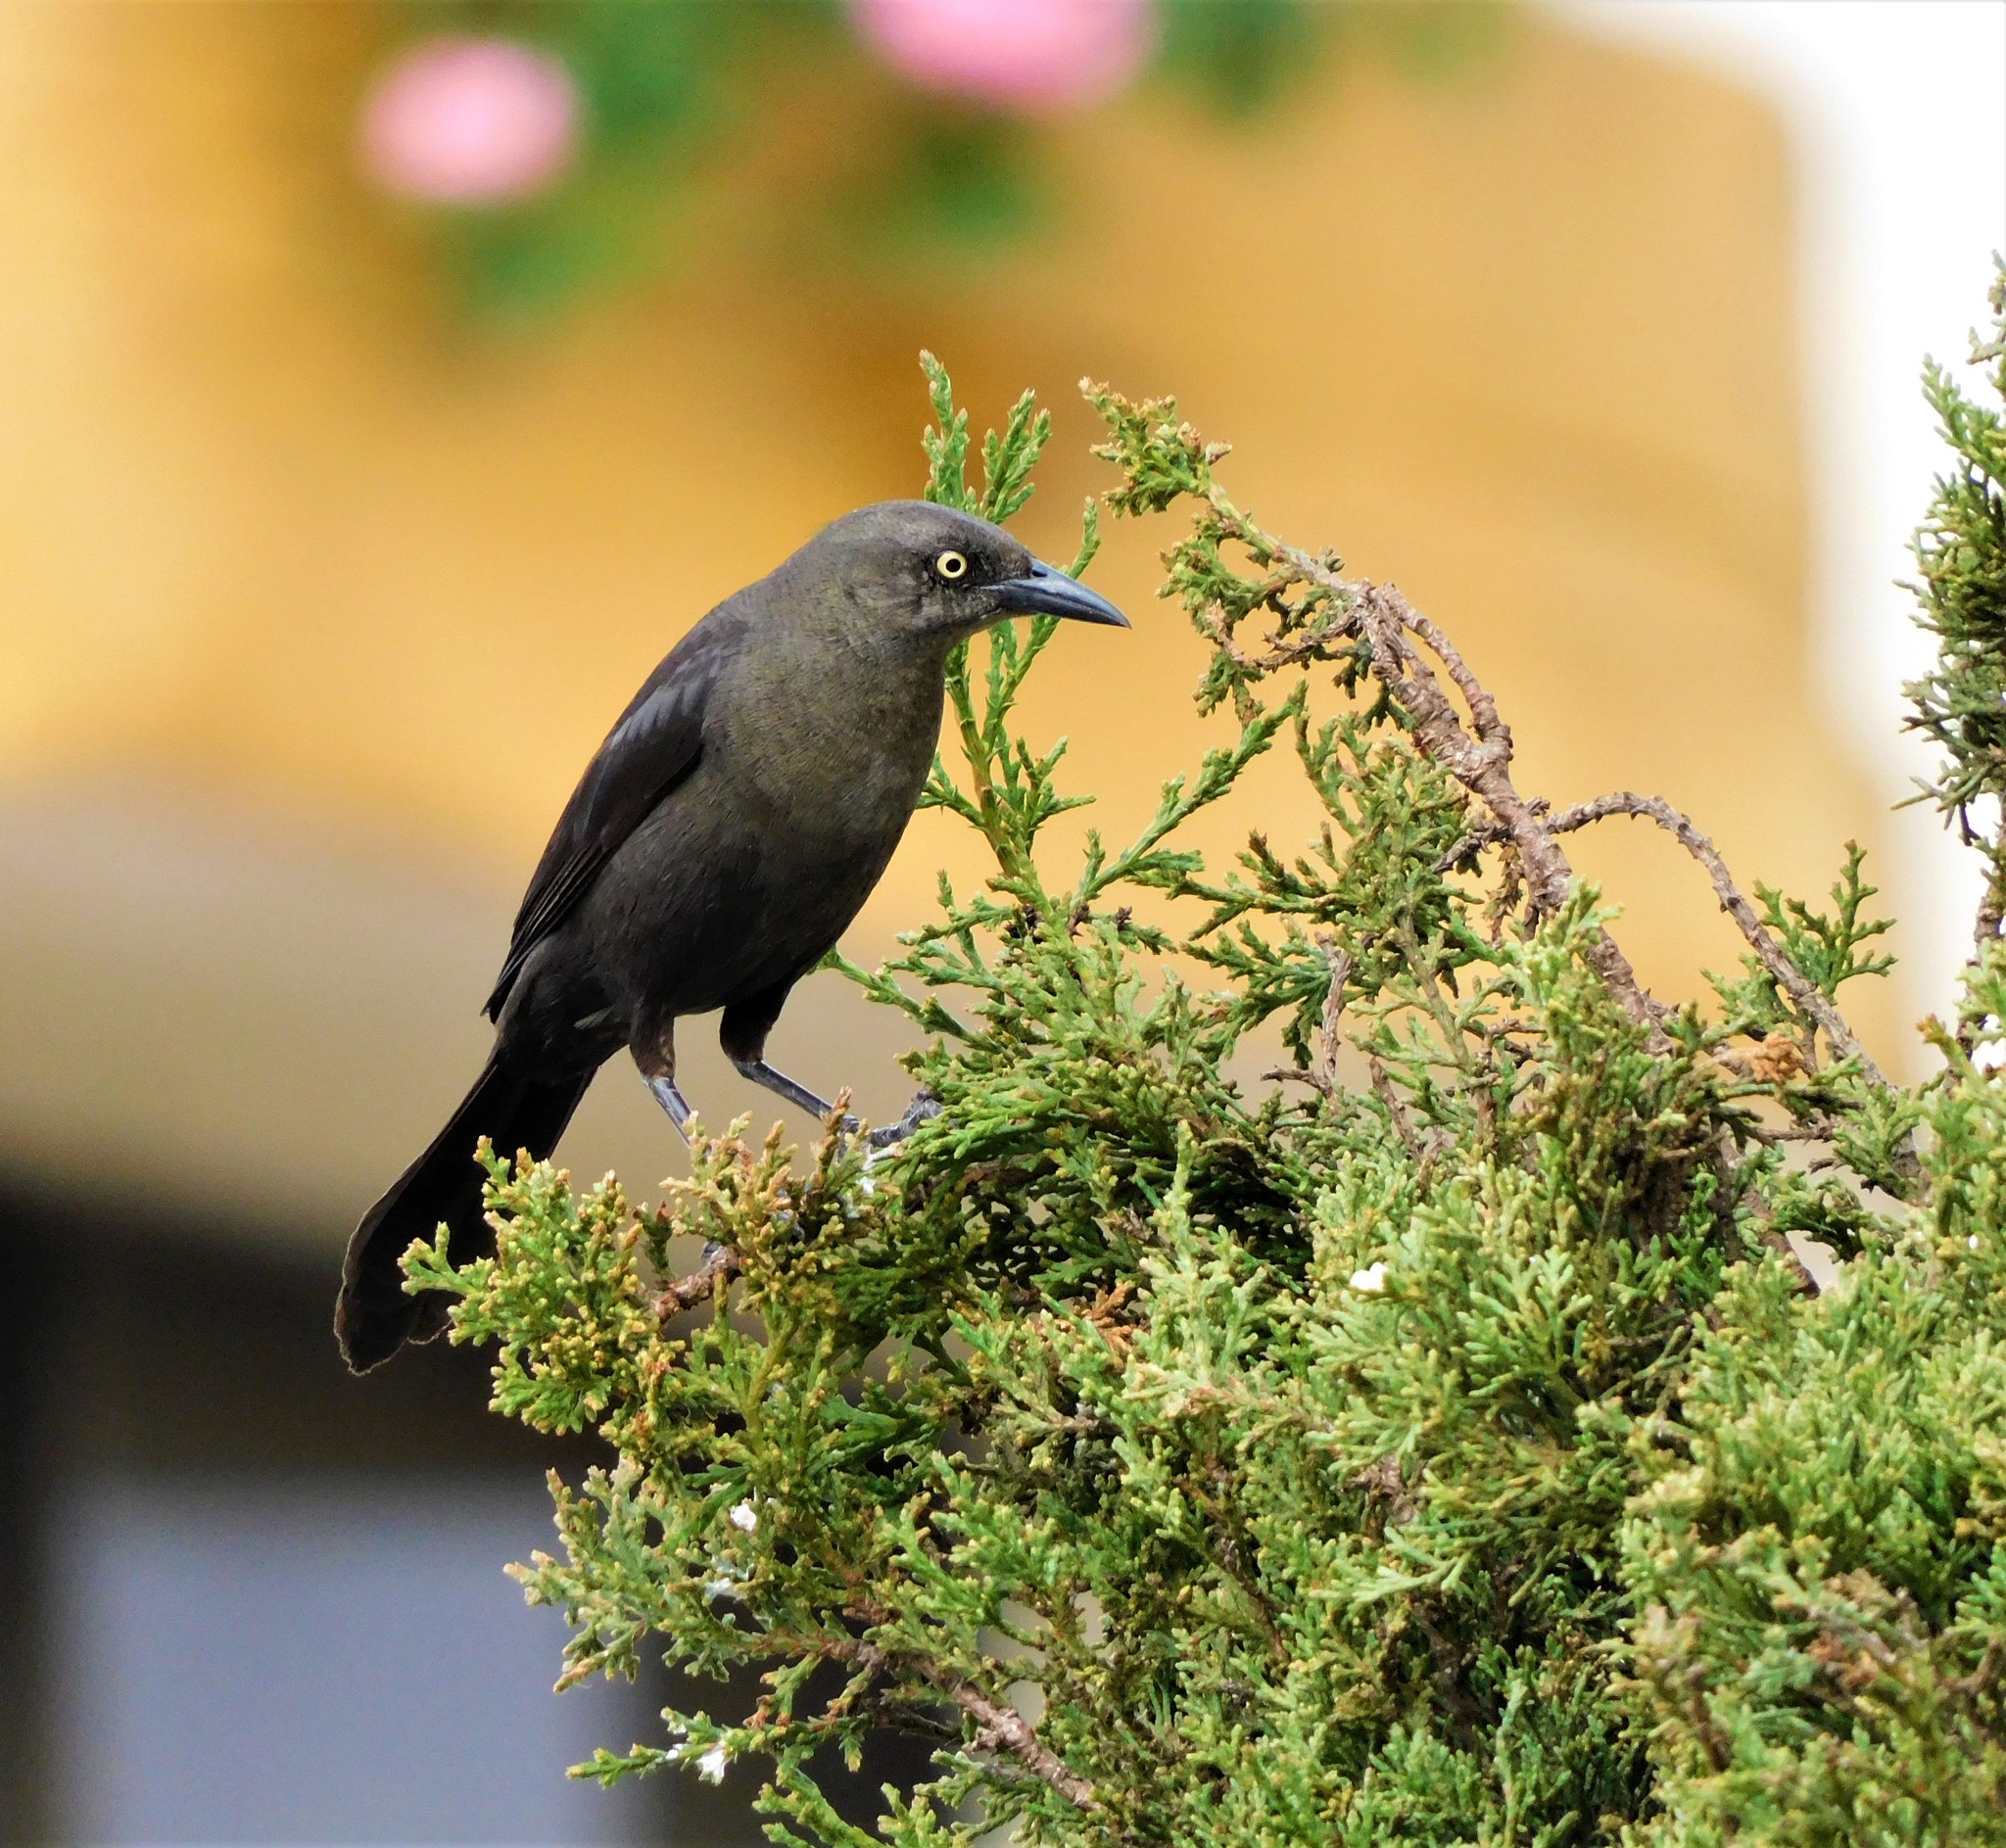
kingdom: Animalia
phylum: Chordata
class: Aves
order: Passeriformes
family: Icteridae
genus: Quiscalus
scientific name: Quiscalus lugubris
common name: Carib grackle
